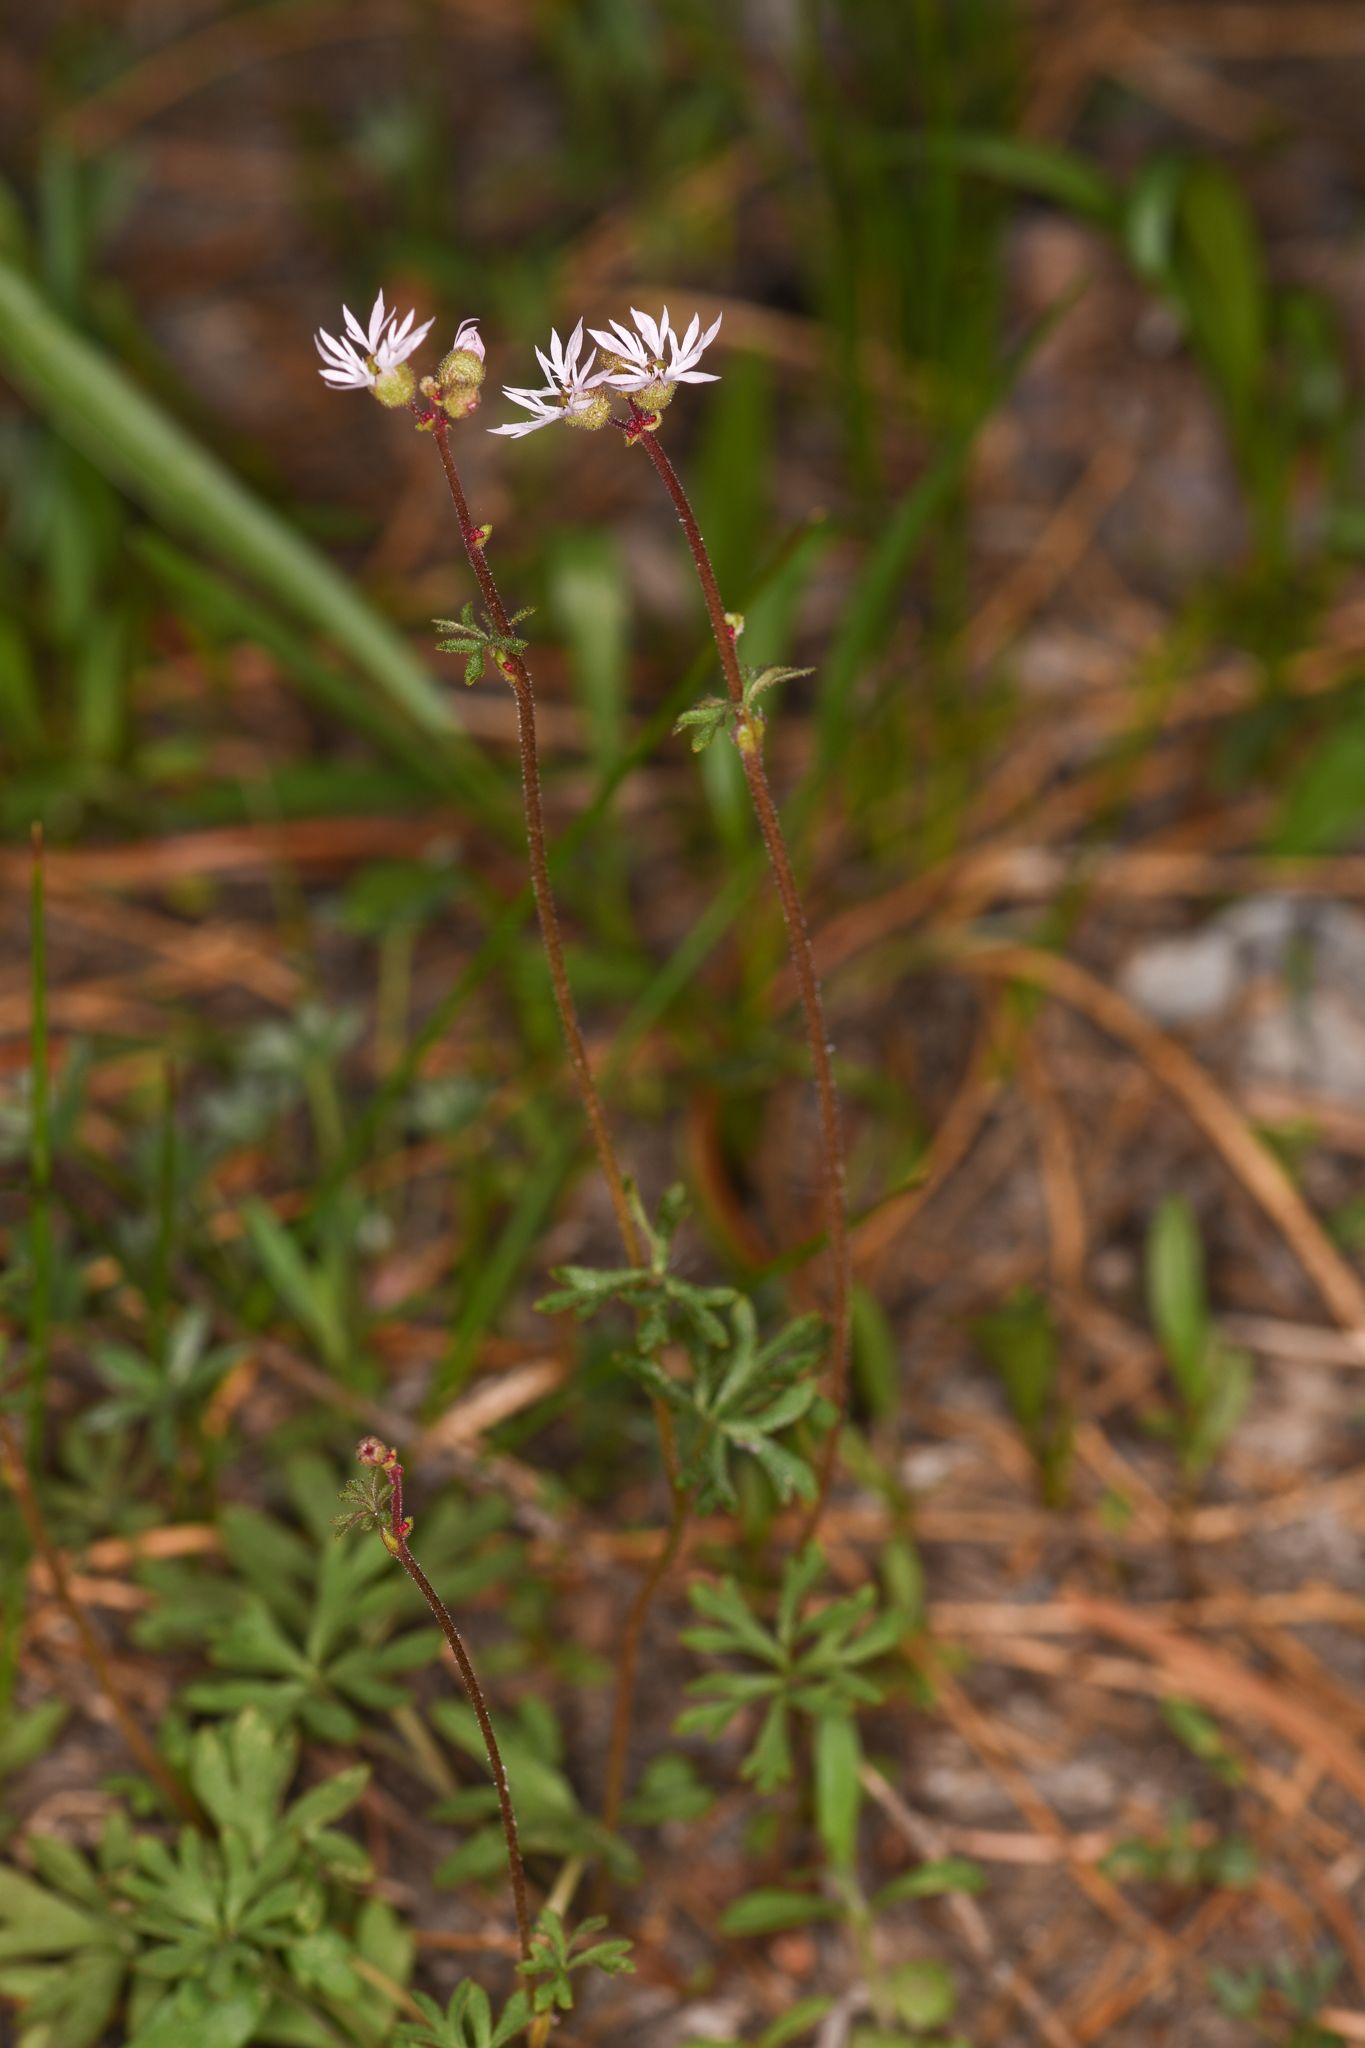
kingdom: Plantae
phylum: Tracheophyta
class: Magnoliopsida
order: Saxifragales
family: Saxifragaceae
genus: Lithophragma
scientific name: Lithophragma glabrum
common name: Bulbous prairie-star
